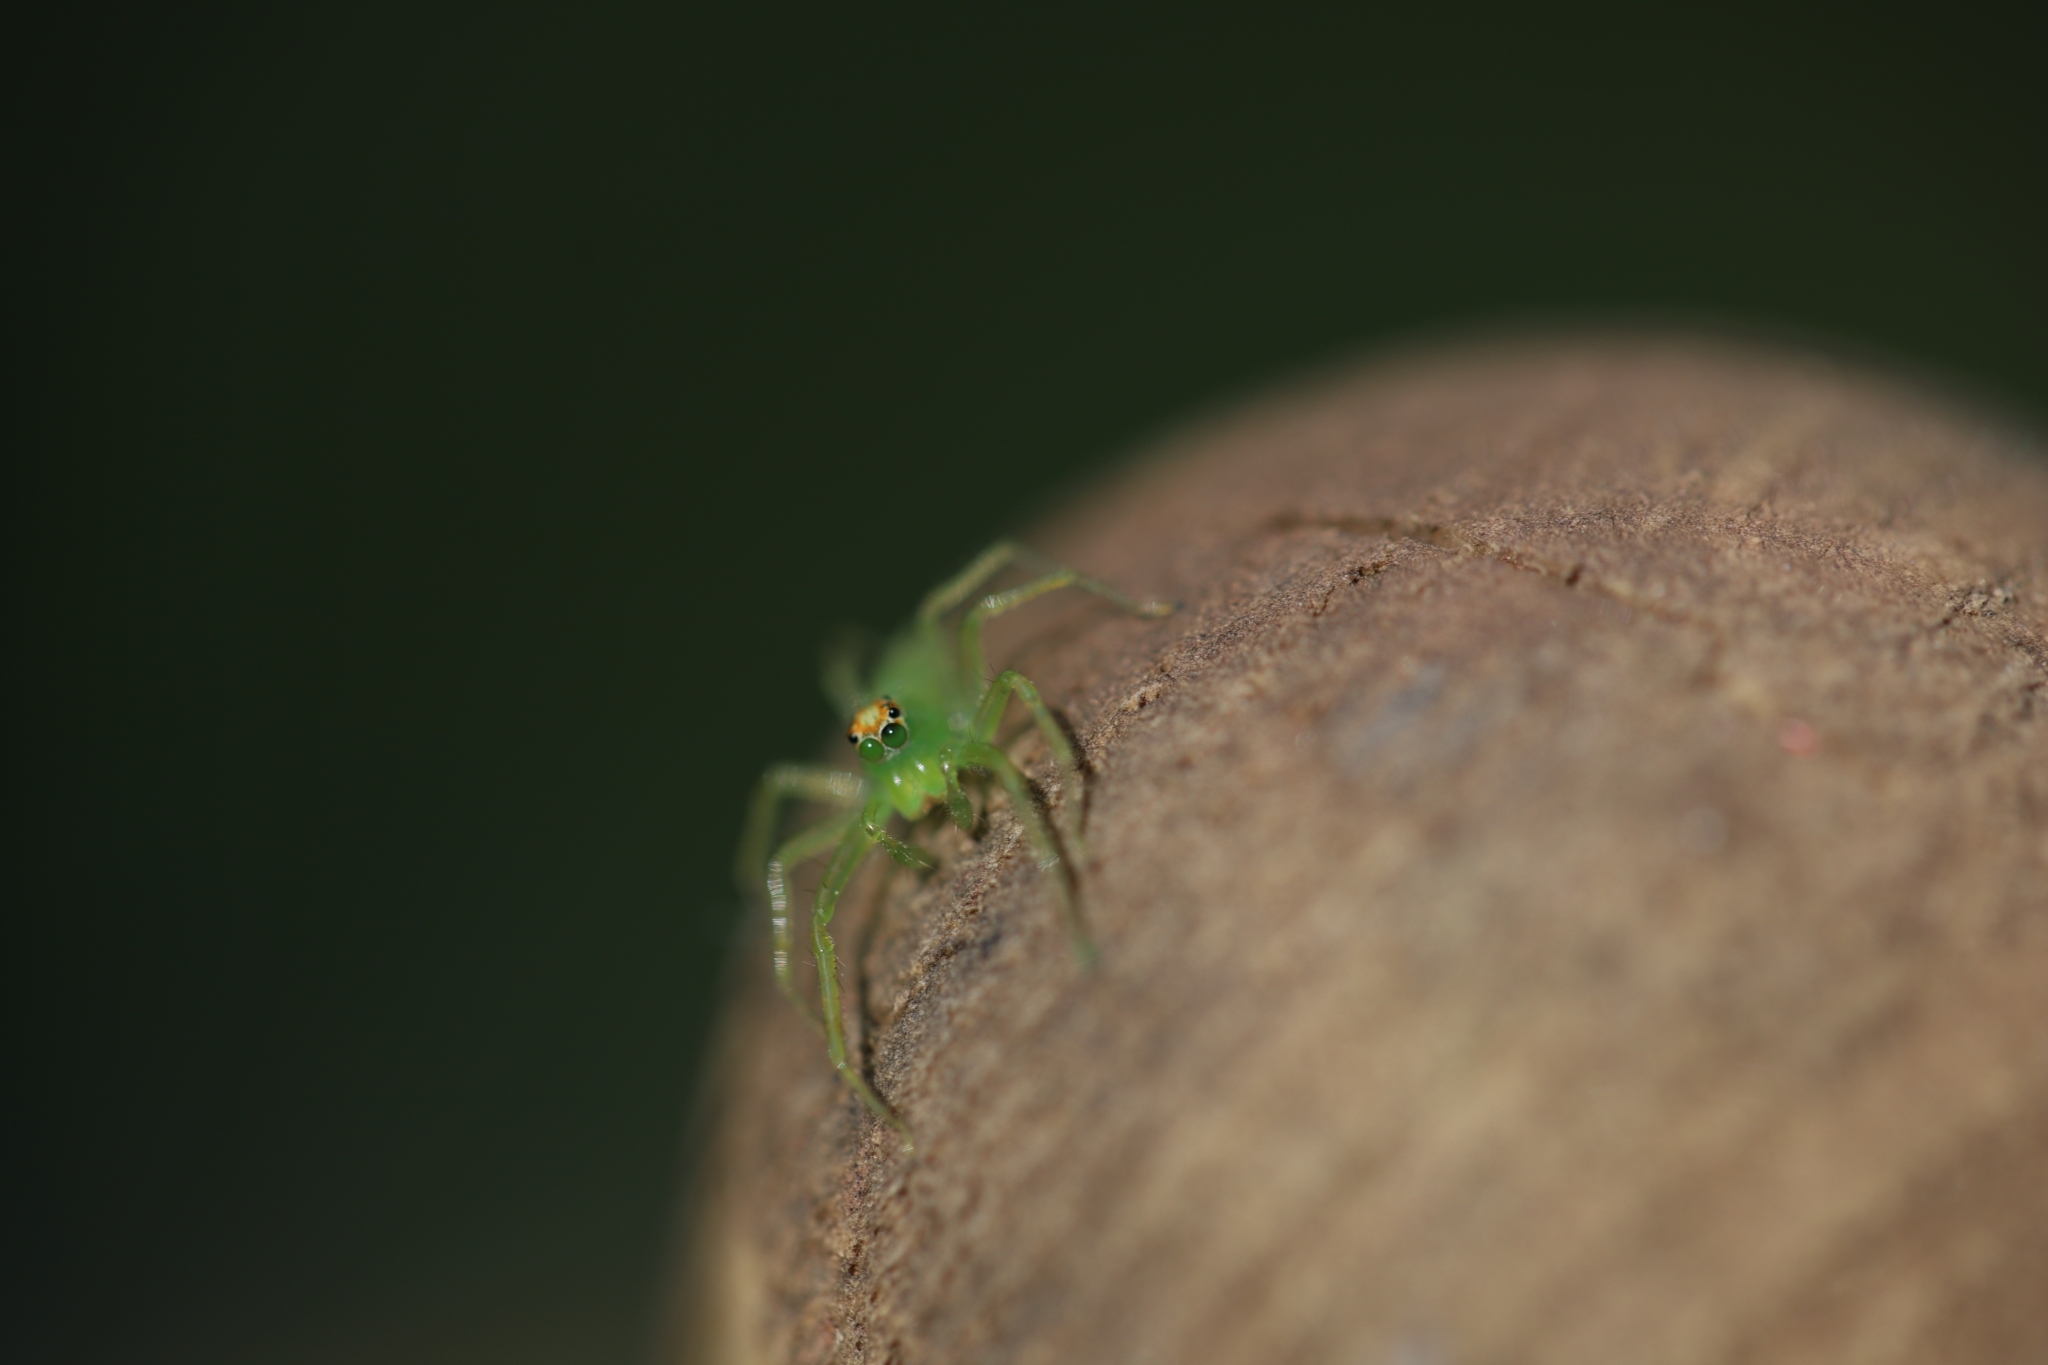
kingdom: Animalia
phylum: Arthropoda
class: Arachnida
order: Araneae
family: Salticidae
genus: Lyssomanes
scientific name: Lyssomanes viridis
